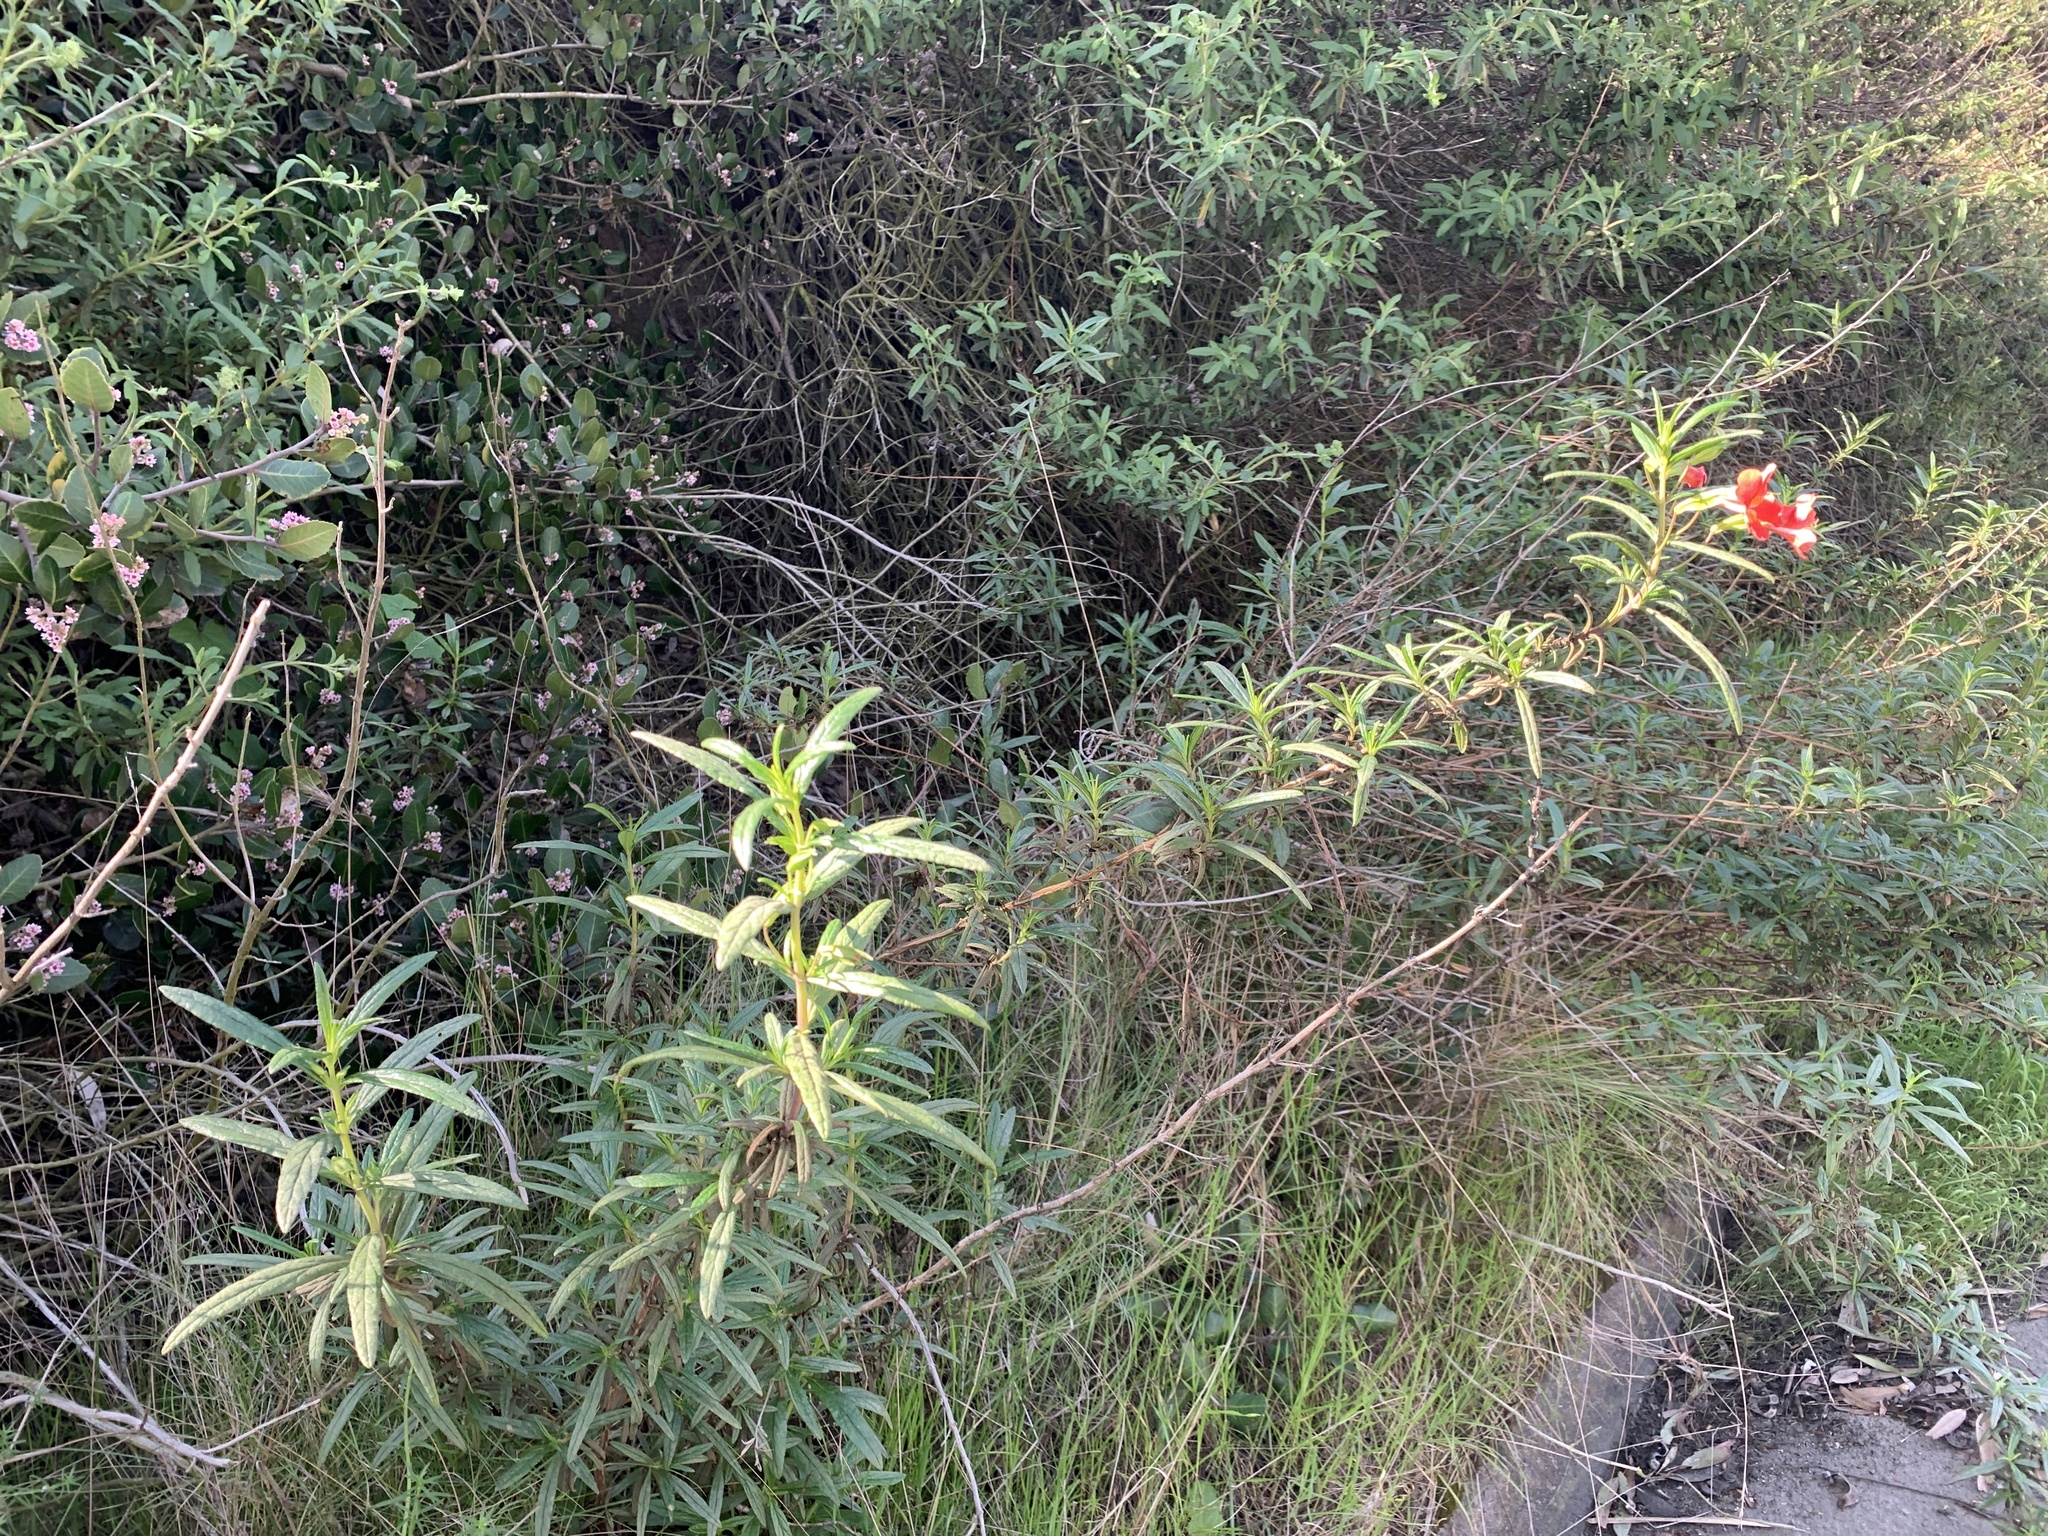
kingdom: Plantae
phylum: Tracheophyta
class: Magnoliopsida
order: Lamiales
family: Phrymaceae
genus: Diplacus
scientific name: Diplacus puniceus
